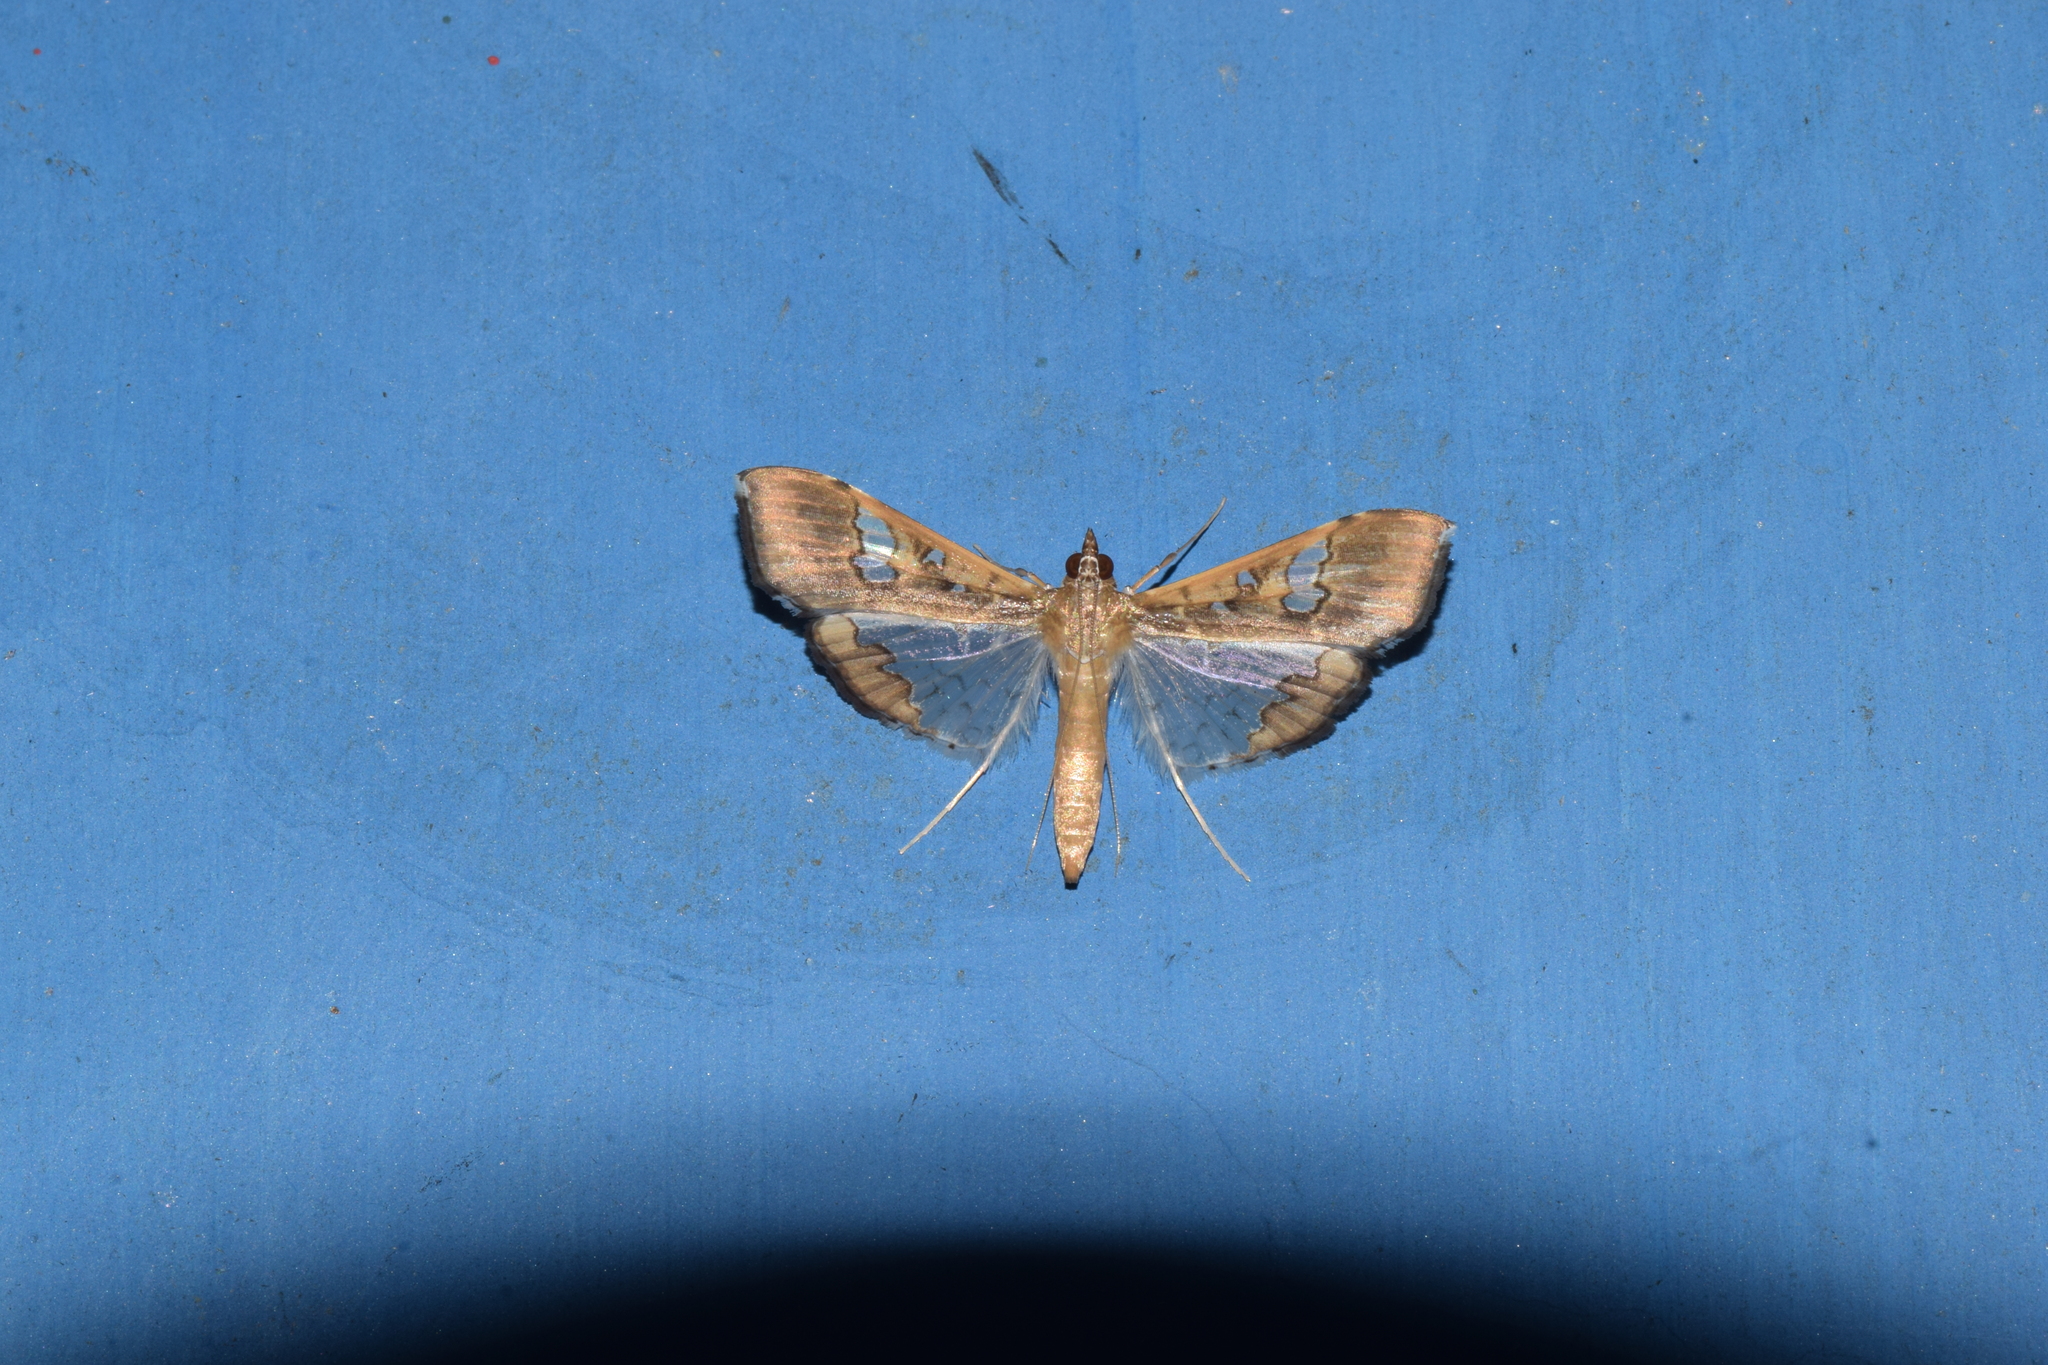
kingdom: Animalia
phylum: Arthropoda
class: Insecta
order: Lepidoptera
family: Crambidae
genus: Maruca
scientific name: Maruca vitrata
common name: Maruca pod borer
